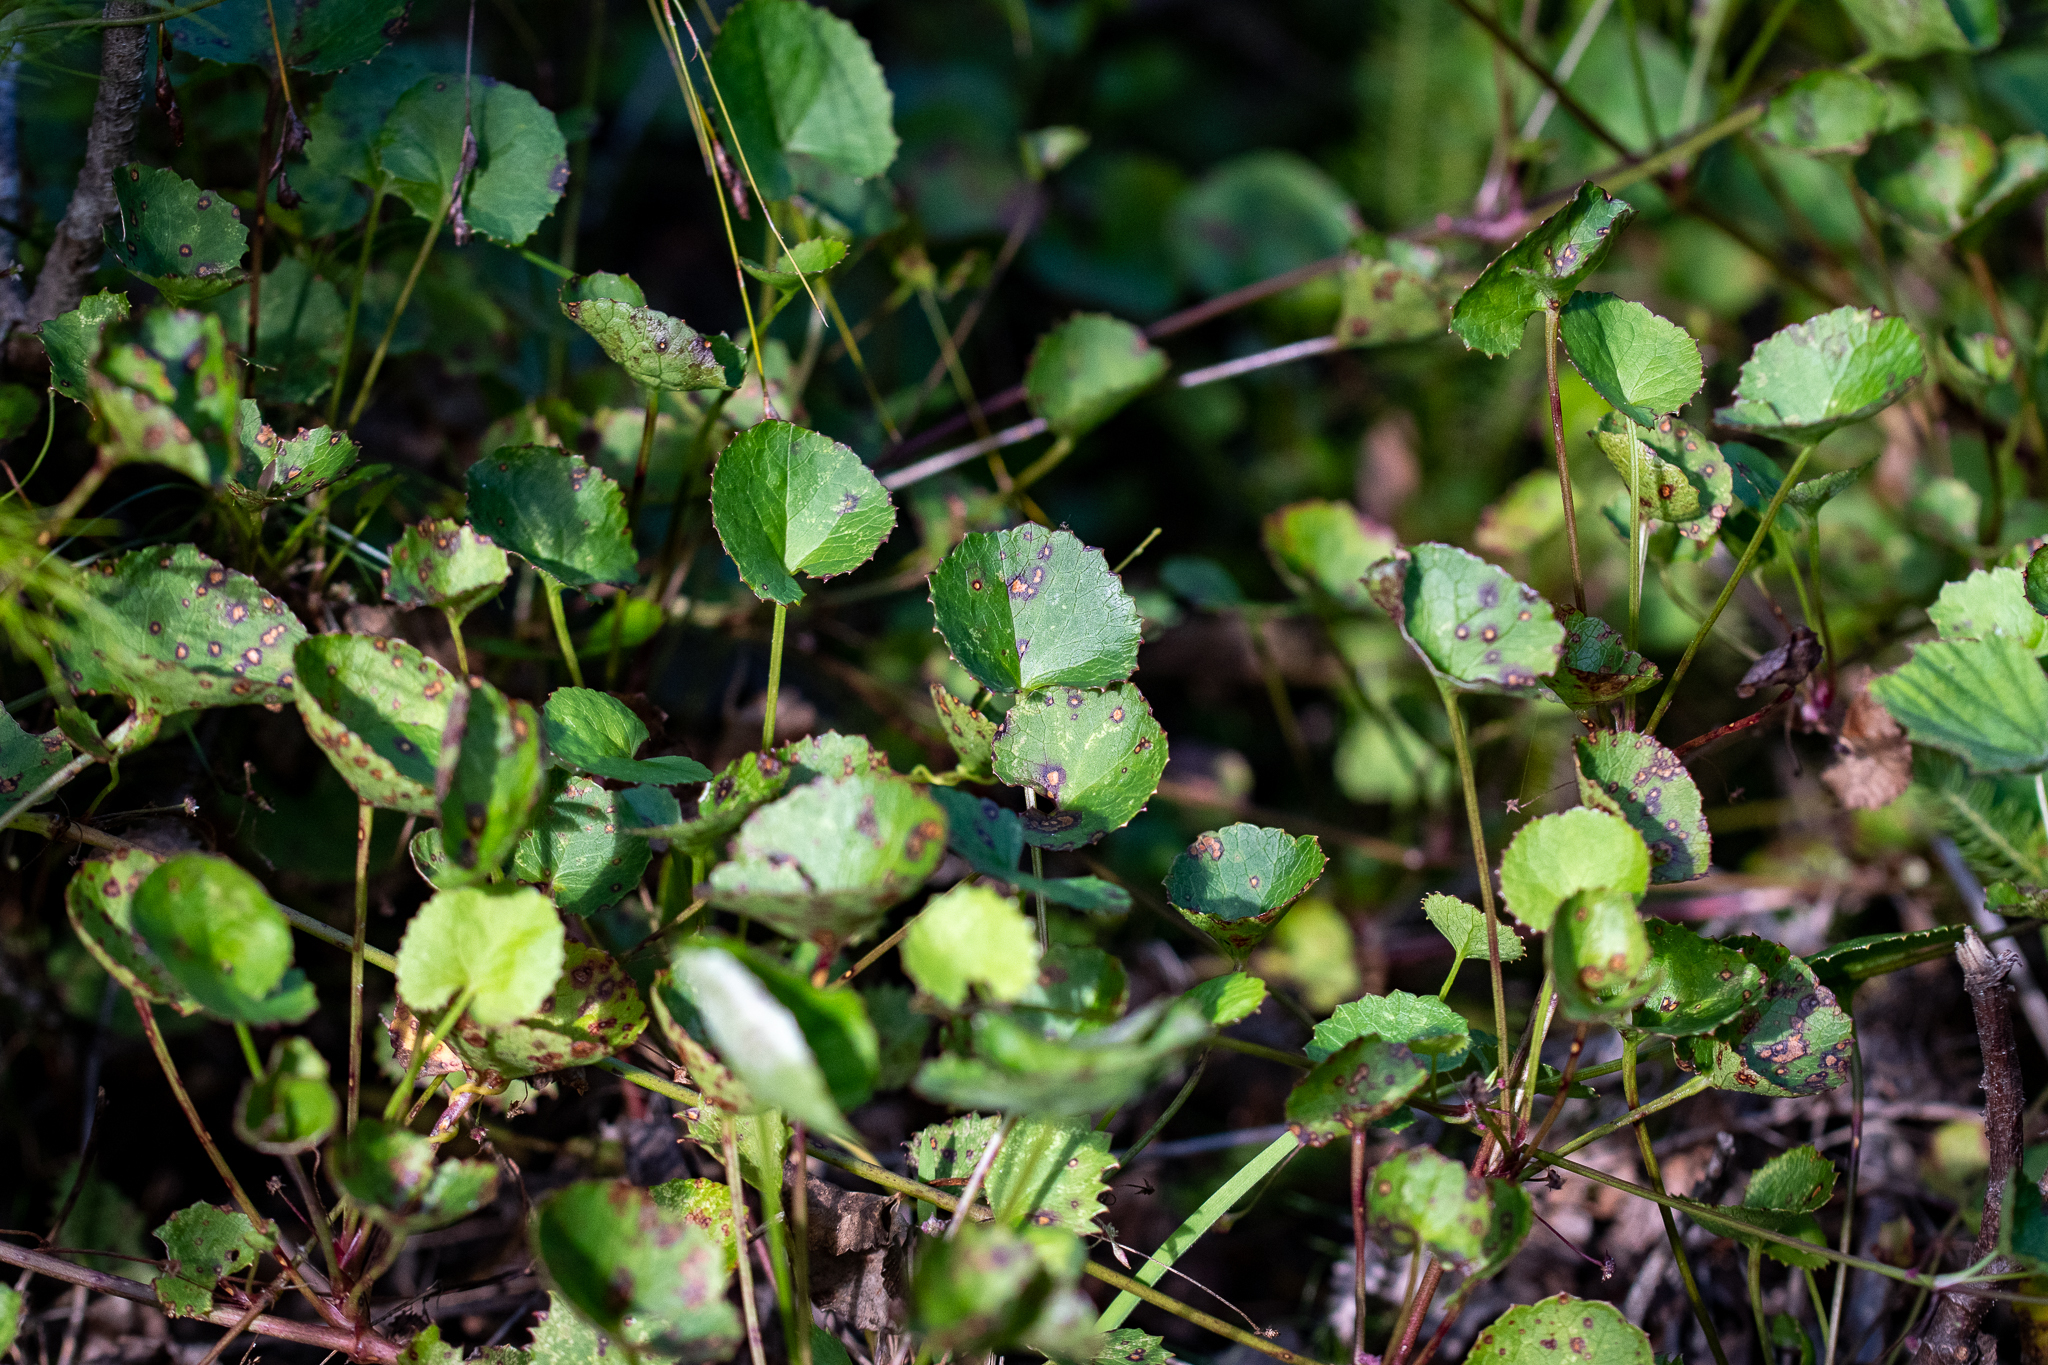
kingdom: Plantae
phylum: Tracheophyta
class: Magnoliopsida
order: Apiales
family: Apiaceae
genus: Centella
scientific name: Centella eriantha
